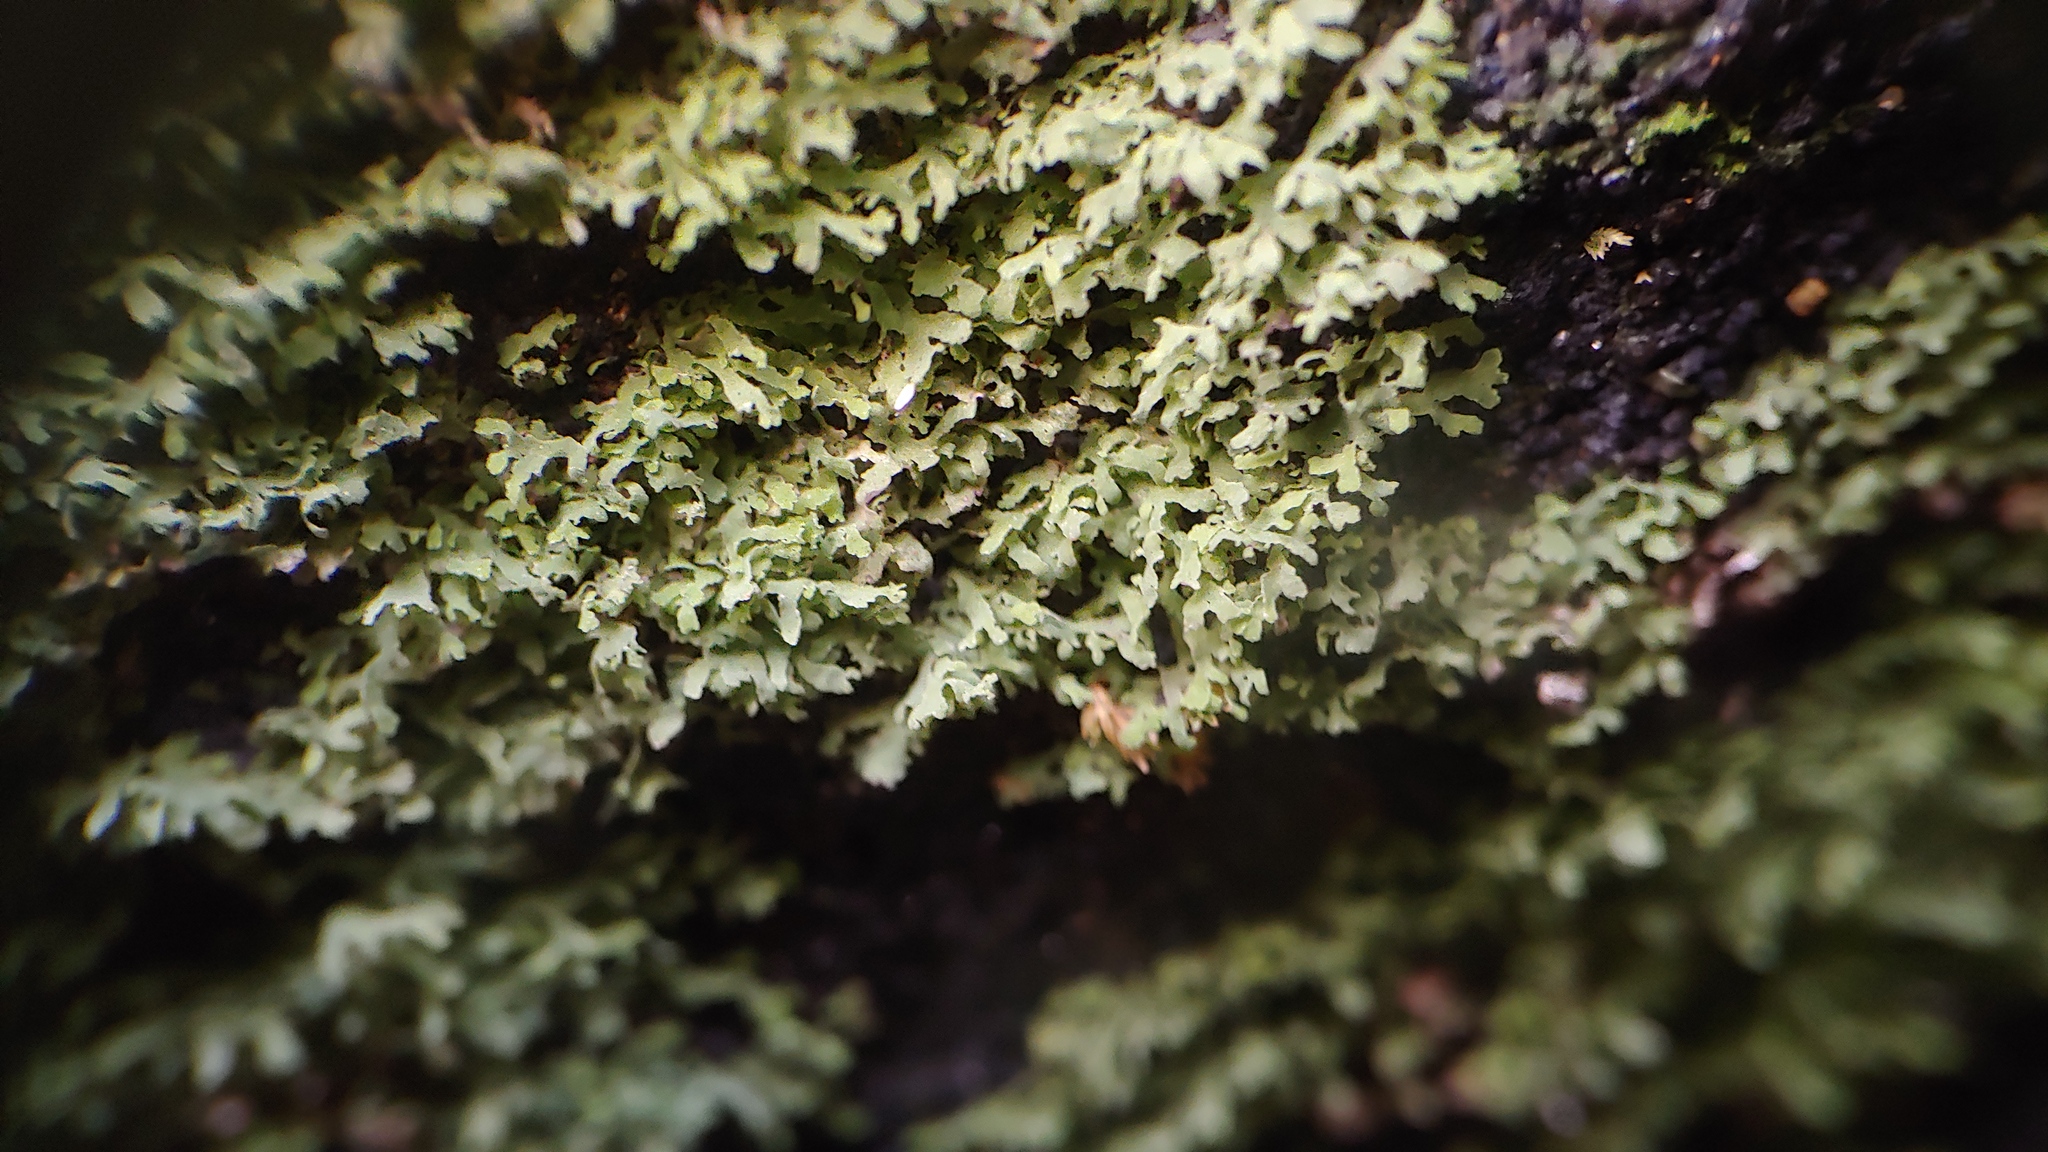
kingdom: Fungi
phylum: Ascomycota
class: Eurotiomycetes
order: Verrucariales
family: Verrucariaceae
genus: Flakea
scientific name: Flakea papillata
